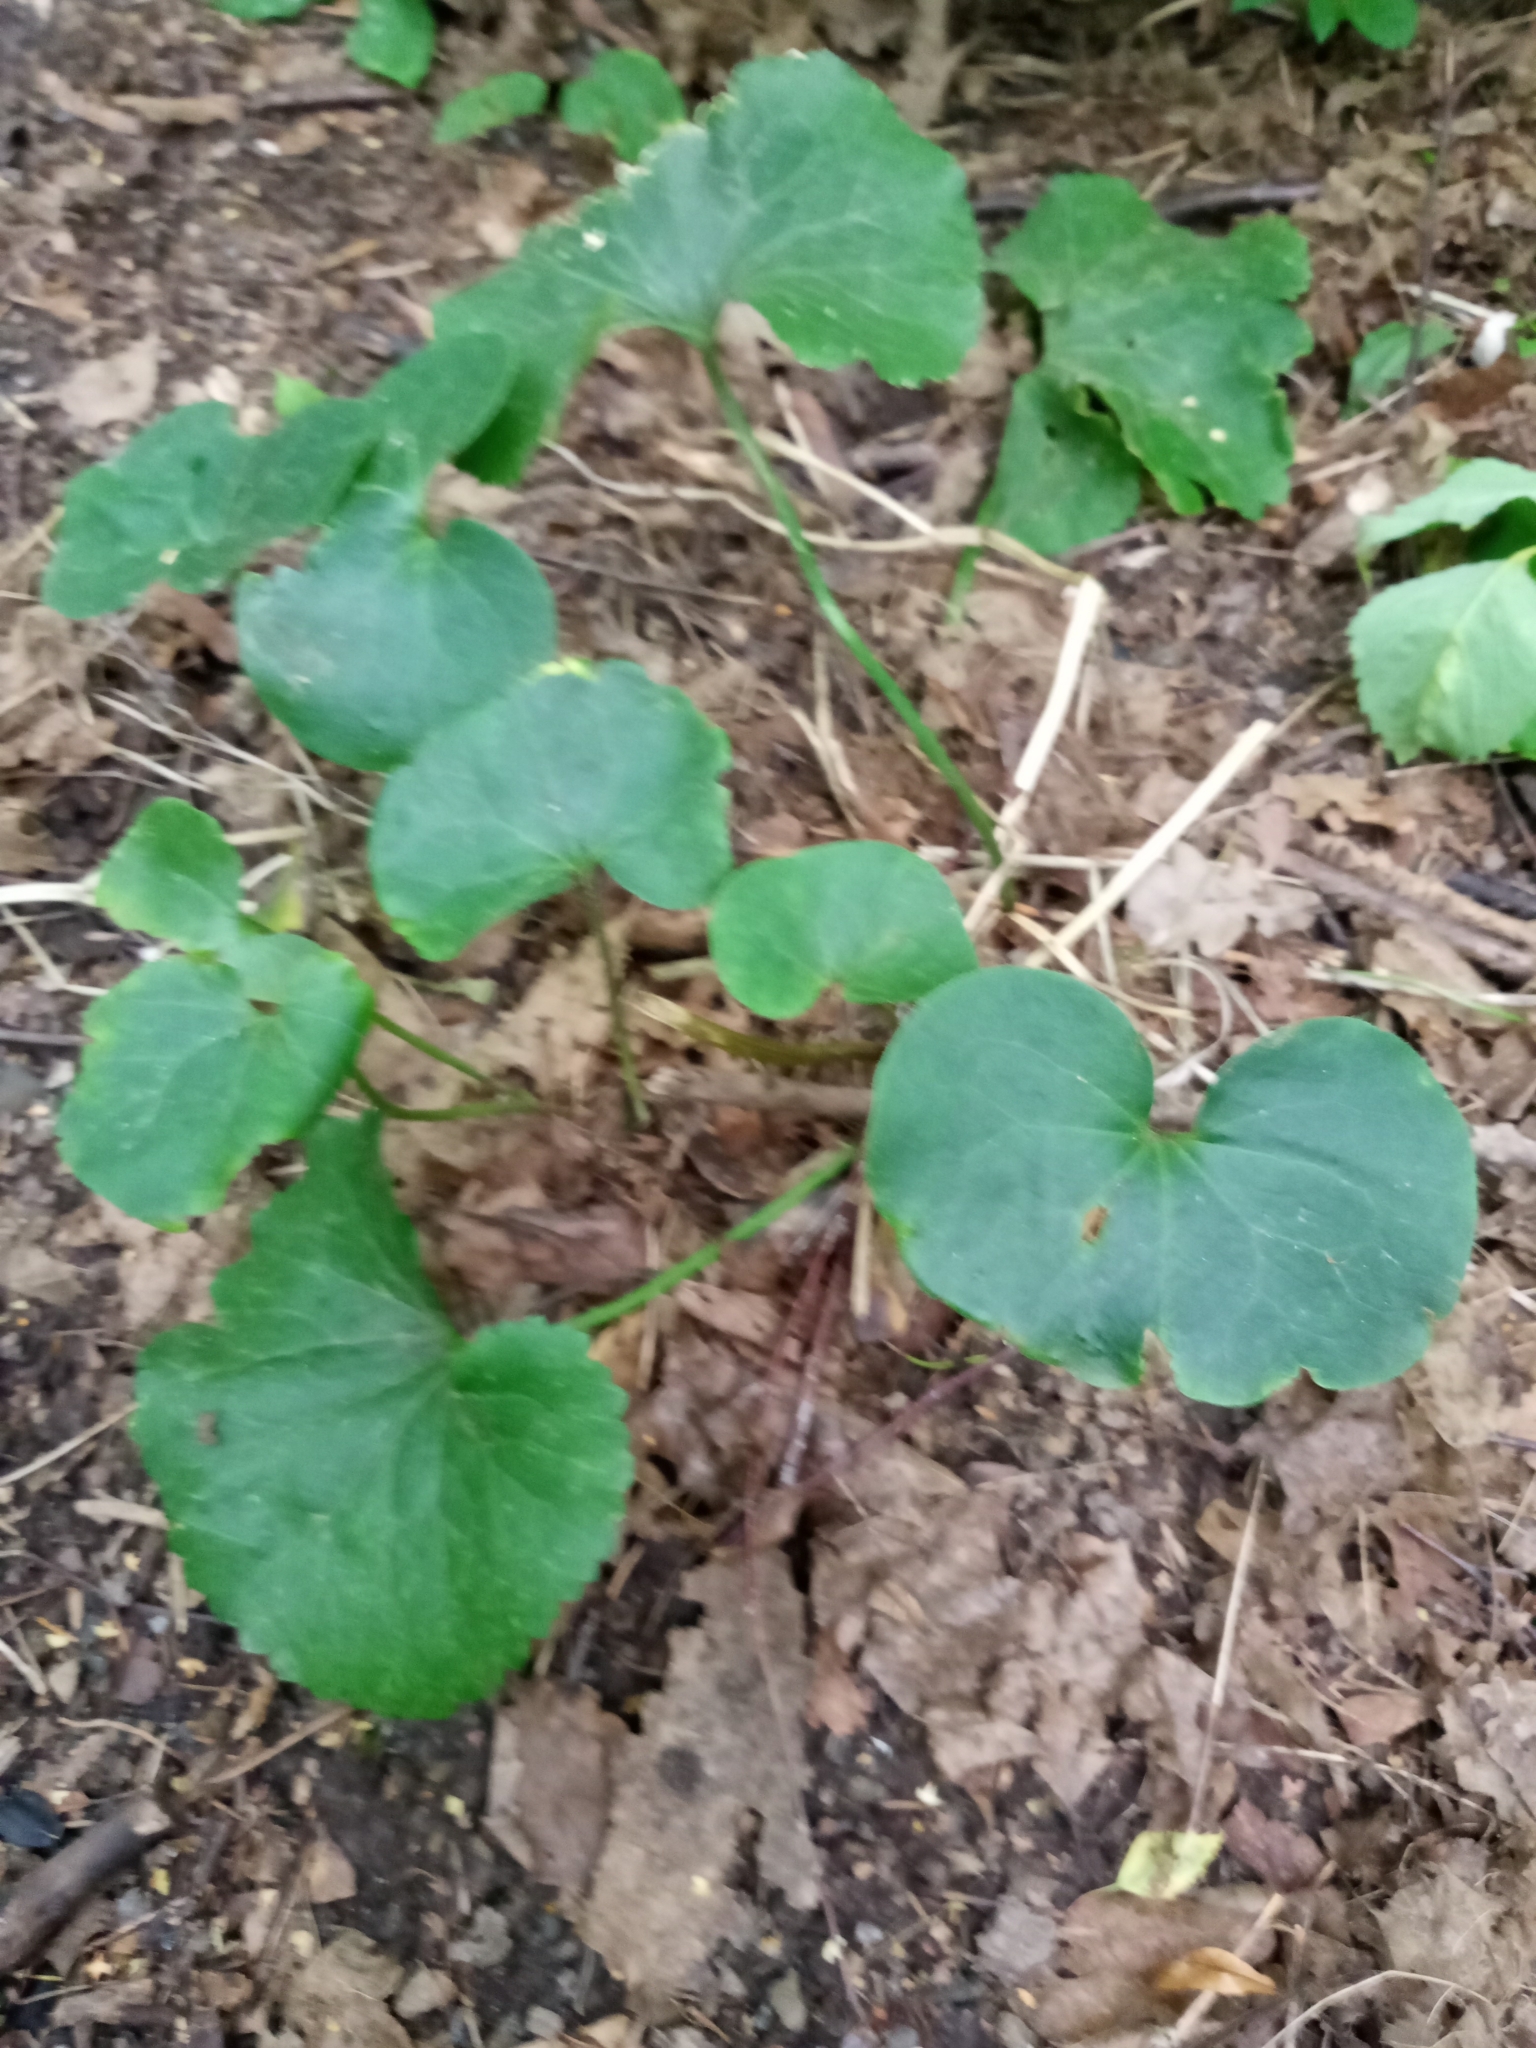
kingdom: Plantae
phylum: Tracheophyta
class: Magnoliopsida
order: Piperales
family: Aristolochiaceae
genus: Asarum
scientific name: Asarum europaeum
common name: Asarabacca
